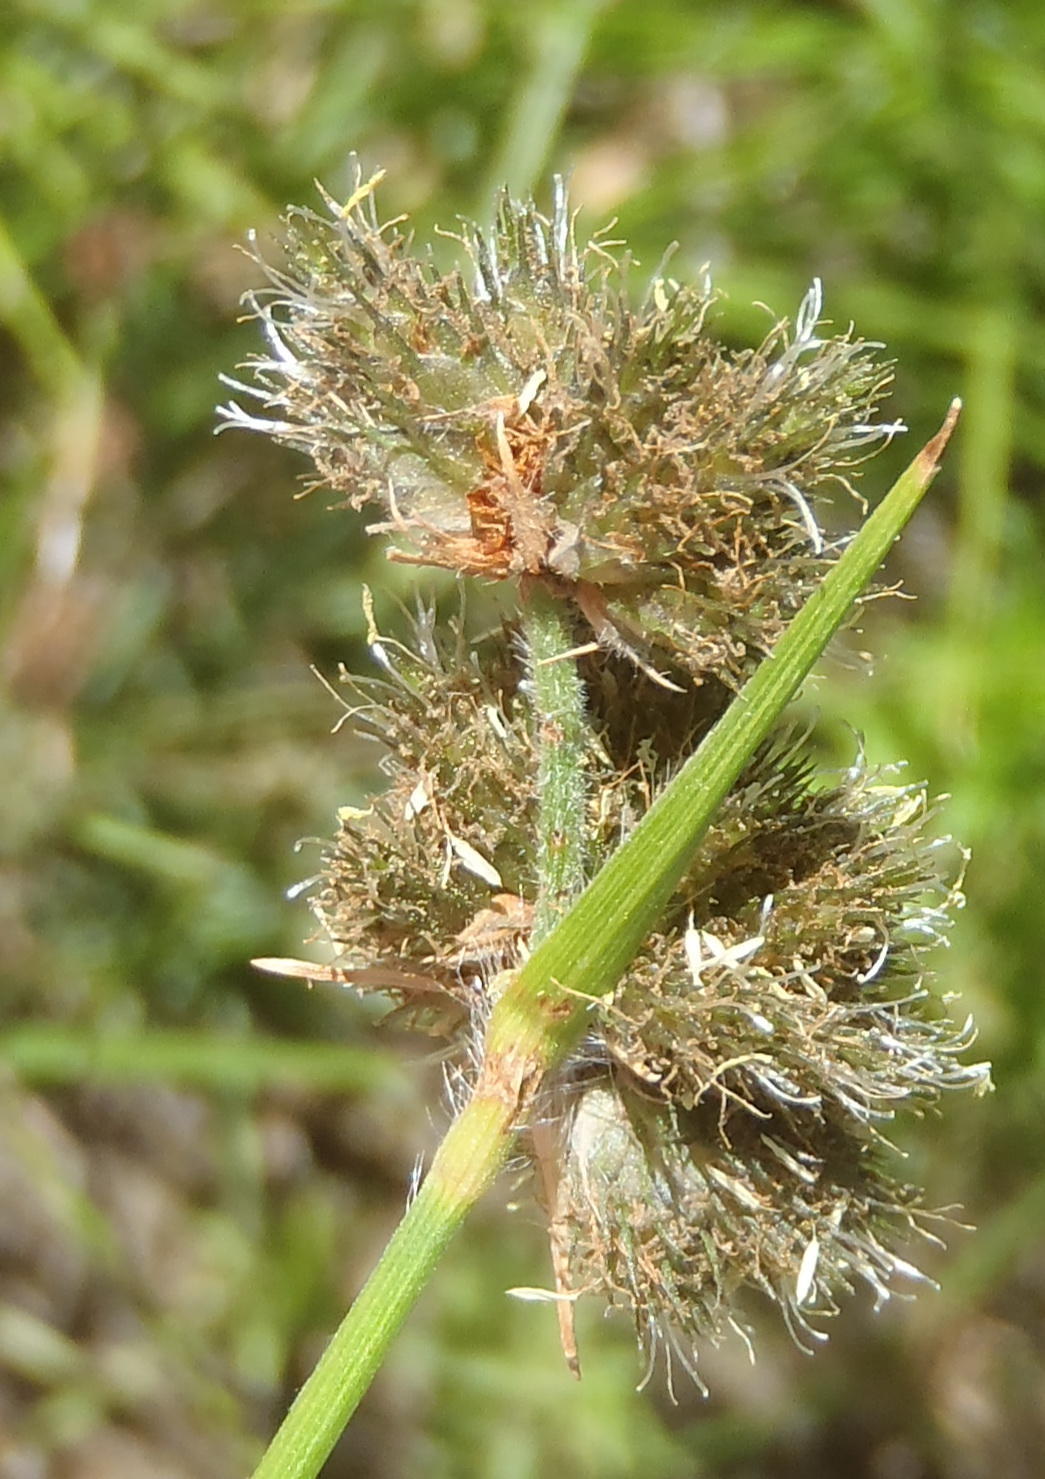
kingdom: Plantae
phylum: Tracheophyta
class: Liliopsida
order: Poales
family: Cyperaceae
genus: Fuirena
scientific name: Fuirena hirsuta
